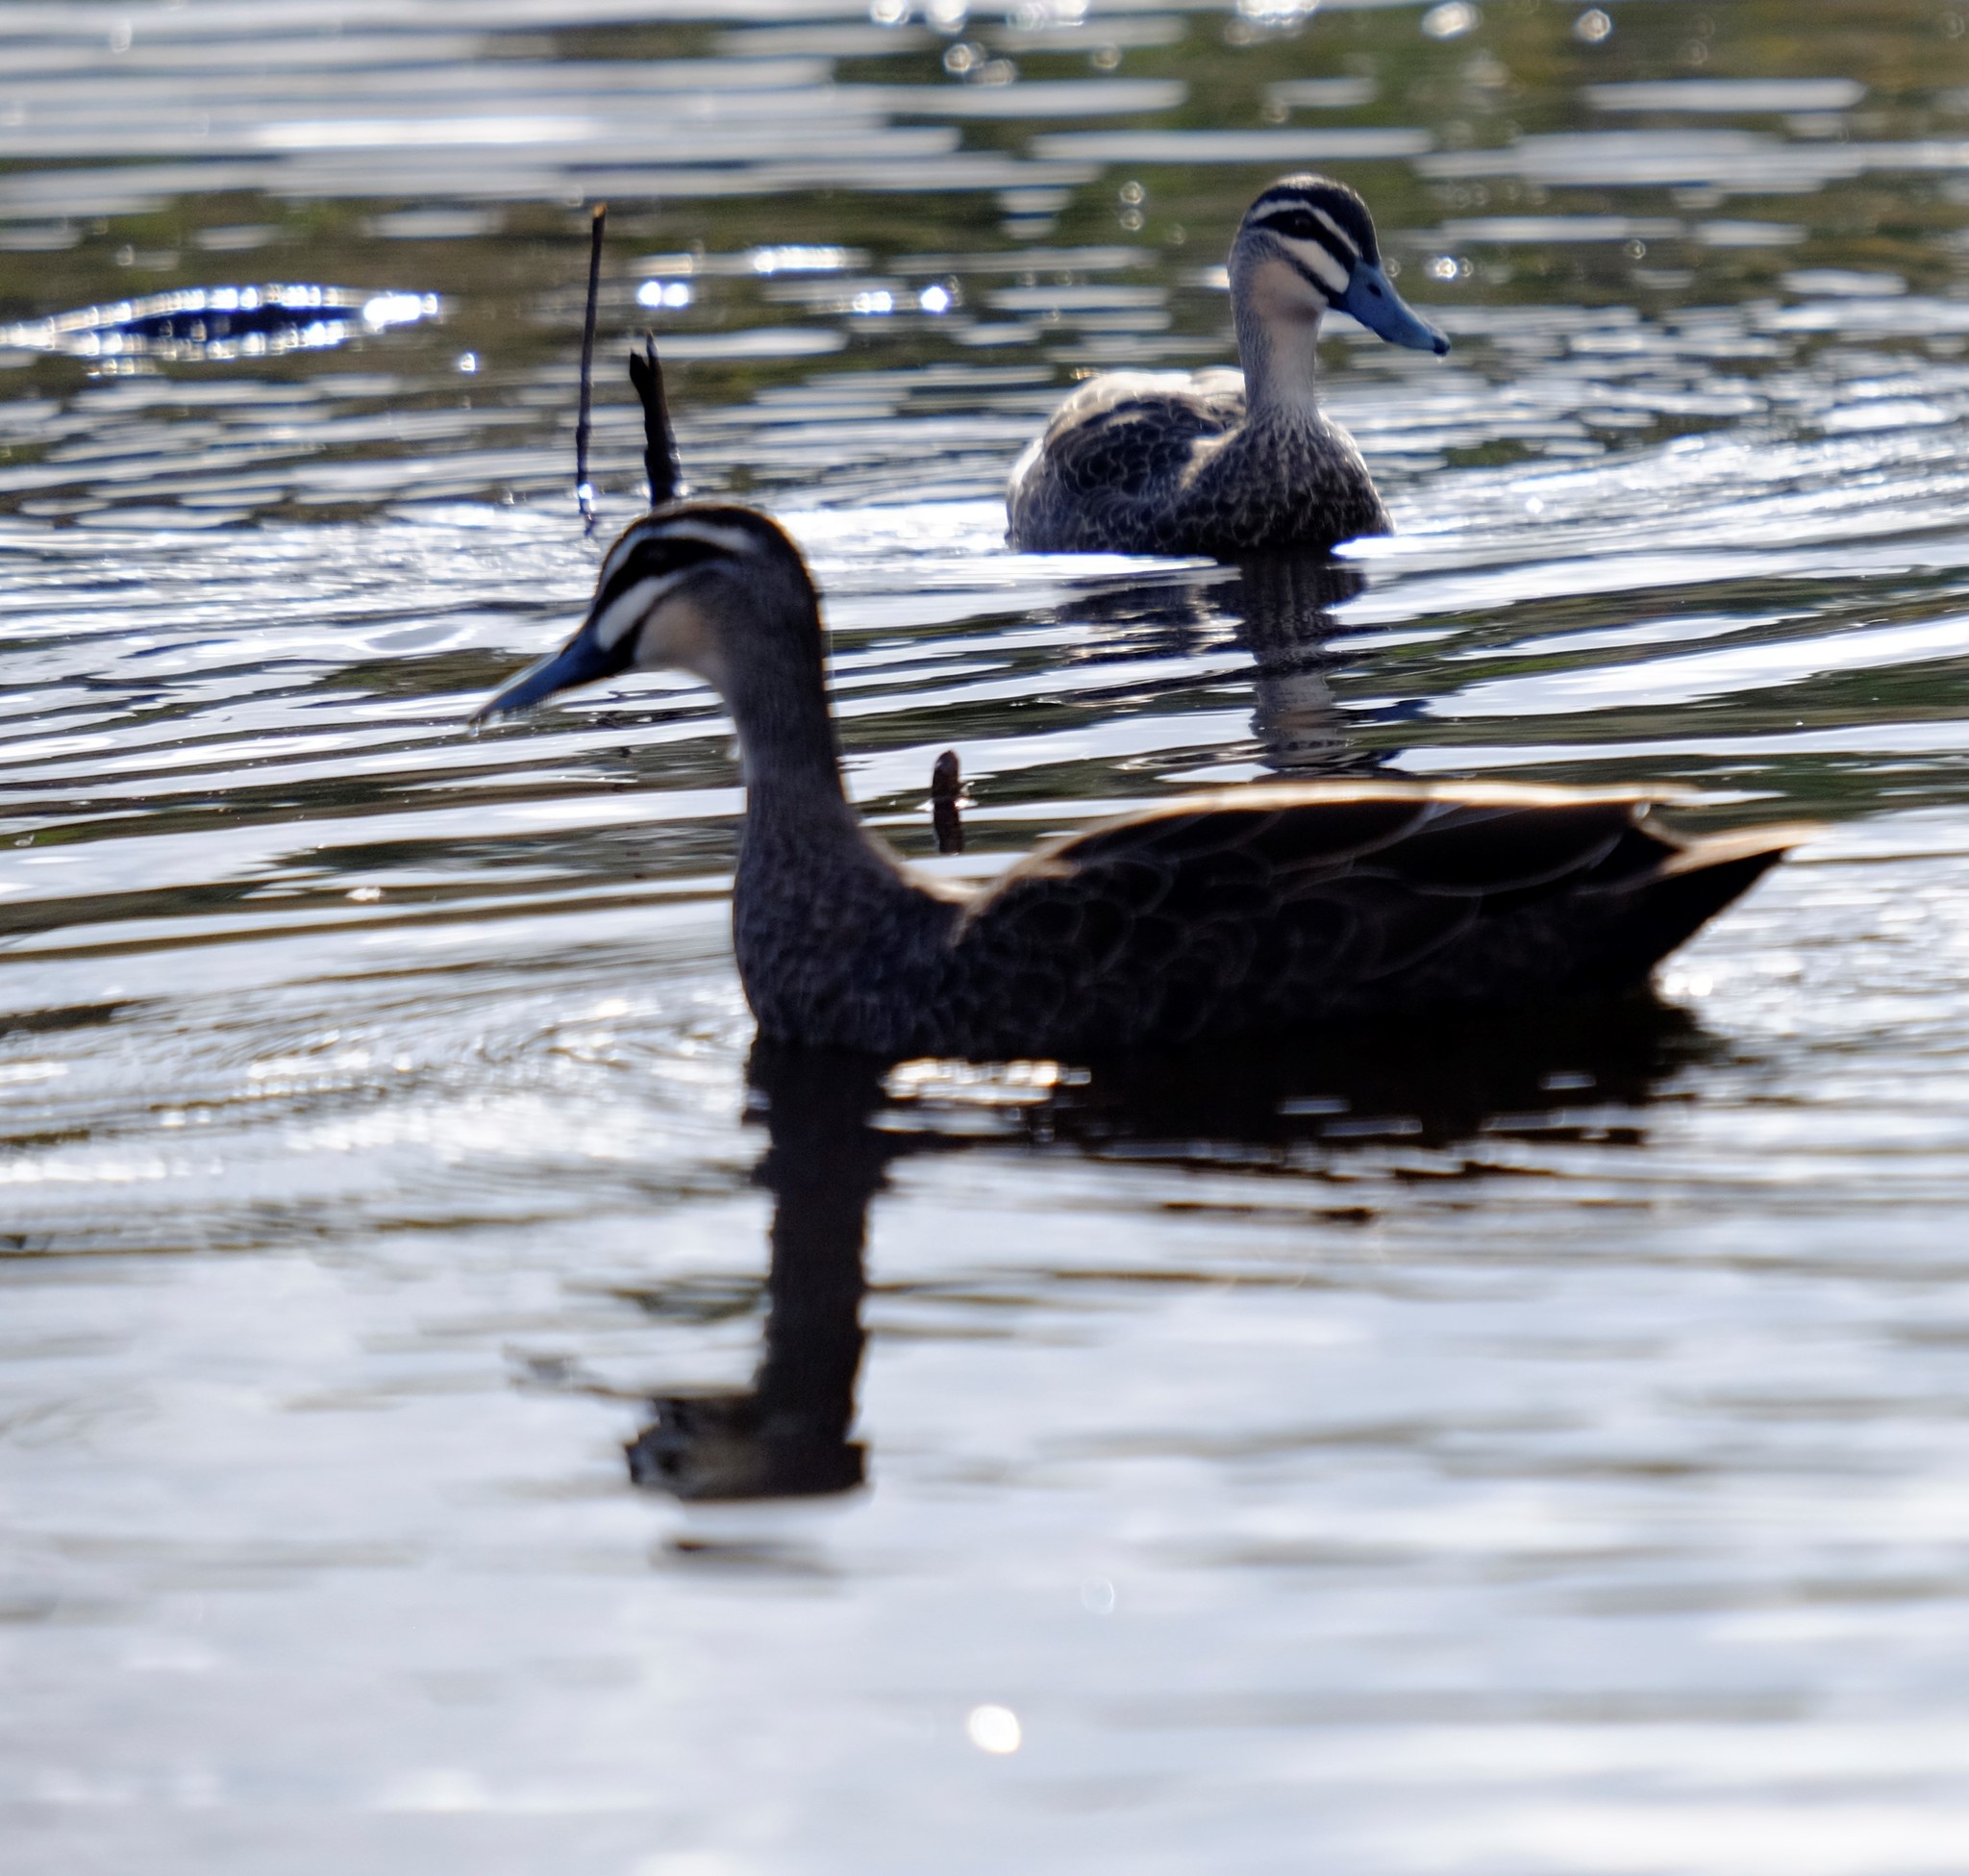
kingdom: Animalia
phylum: Chordata
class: Aves
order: Anseriformes
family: Anatidae
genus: Anas
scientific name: Anas superciliosa
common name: Pacific black duck
